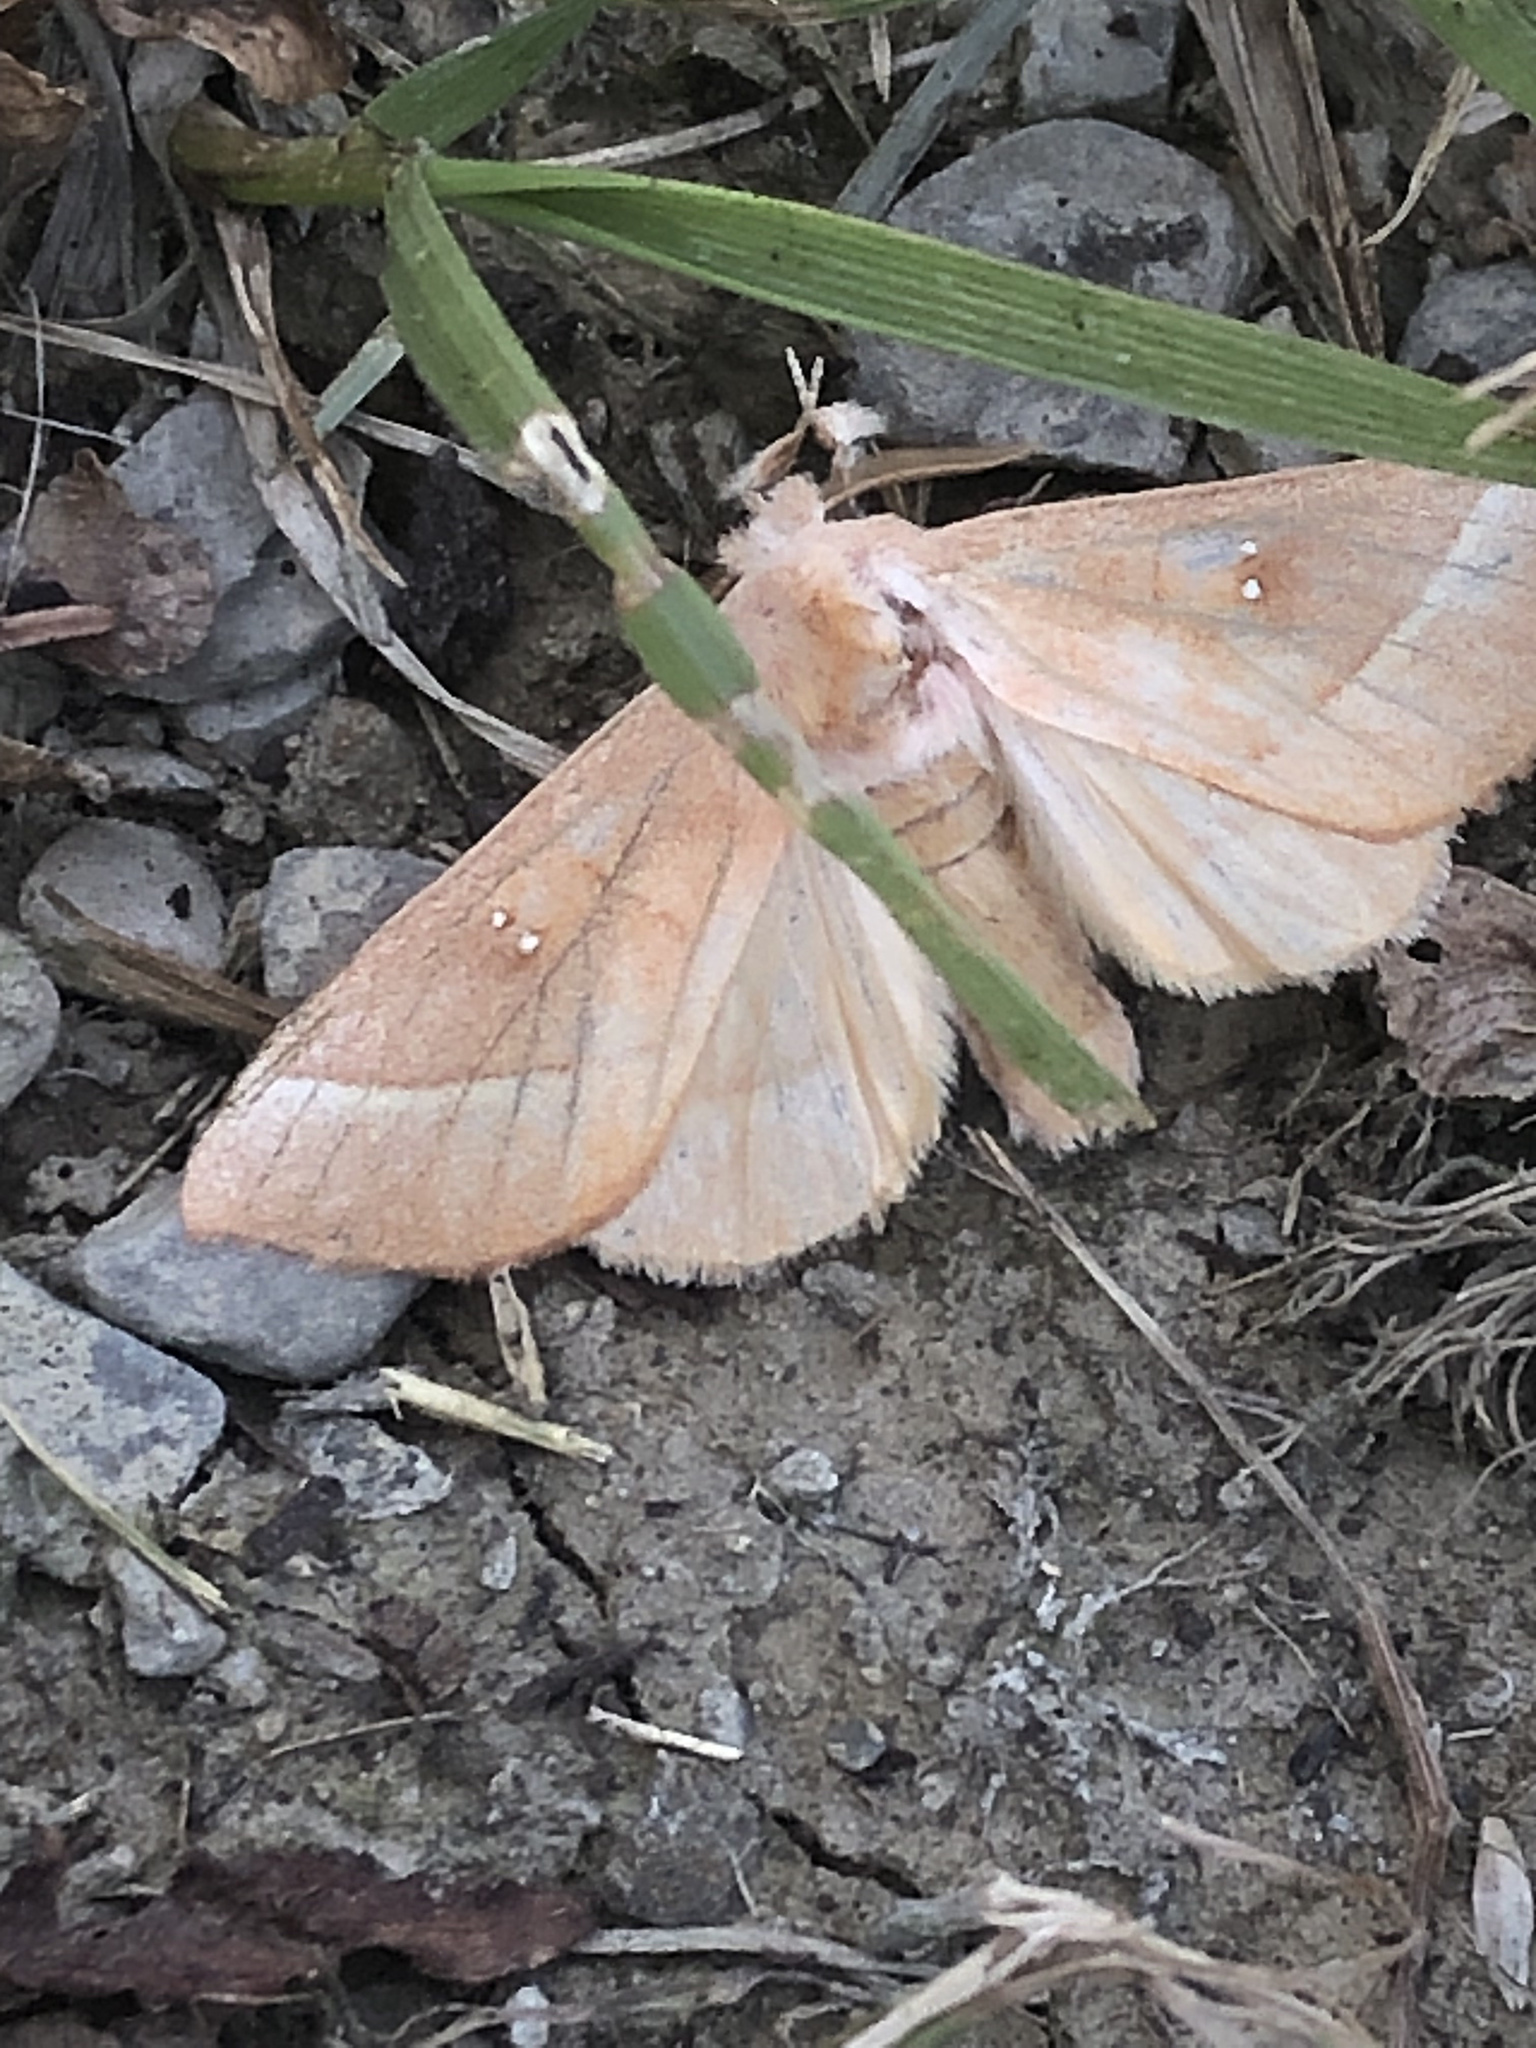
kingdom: Animalia
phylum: Arthropoda
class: Insecta
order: Lepidoptera
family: Notodontidae
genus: Nadata
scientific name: Nadata gibbosa
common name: White-dotted prominent
